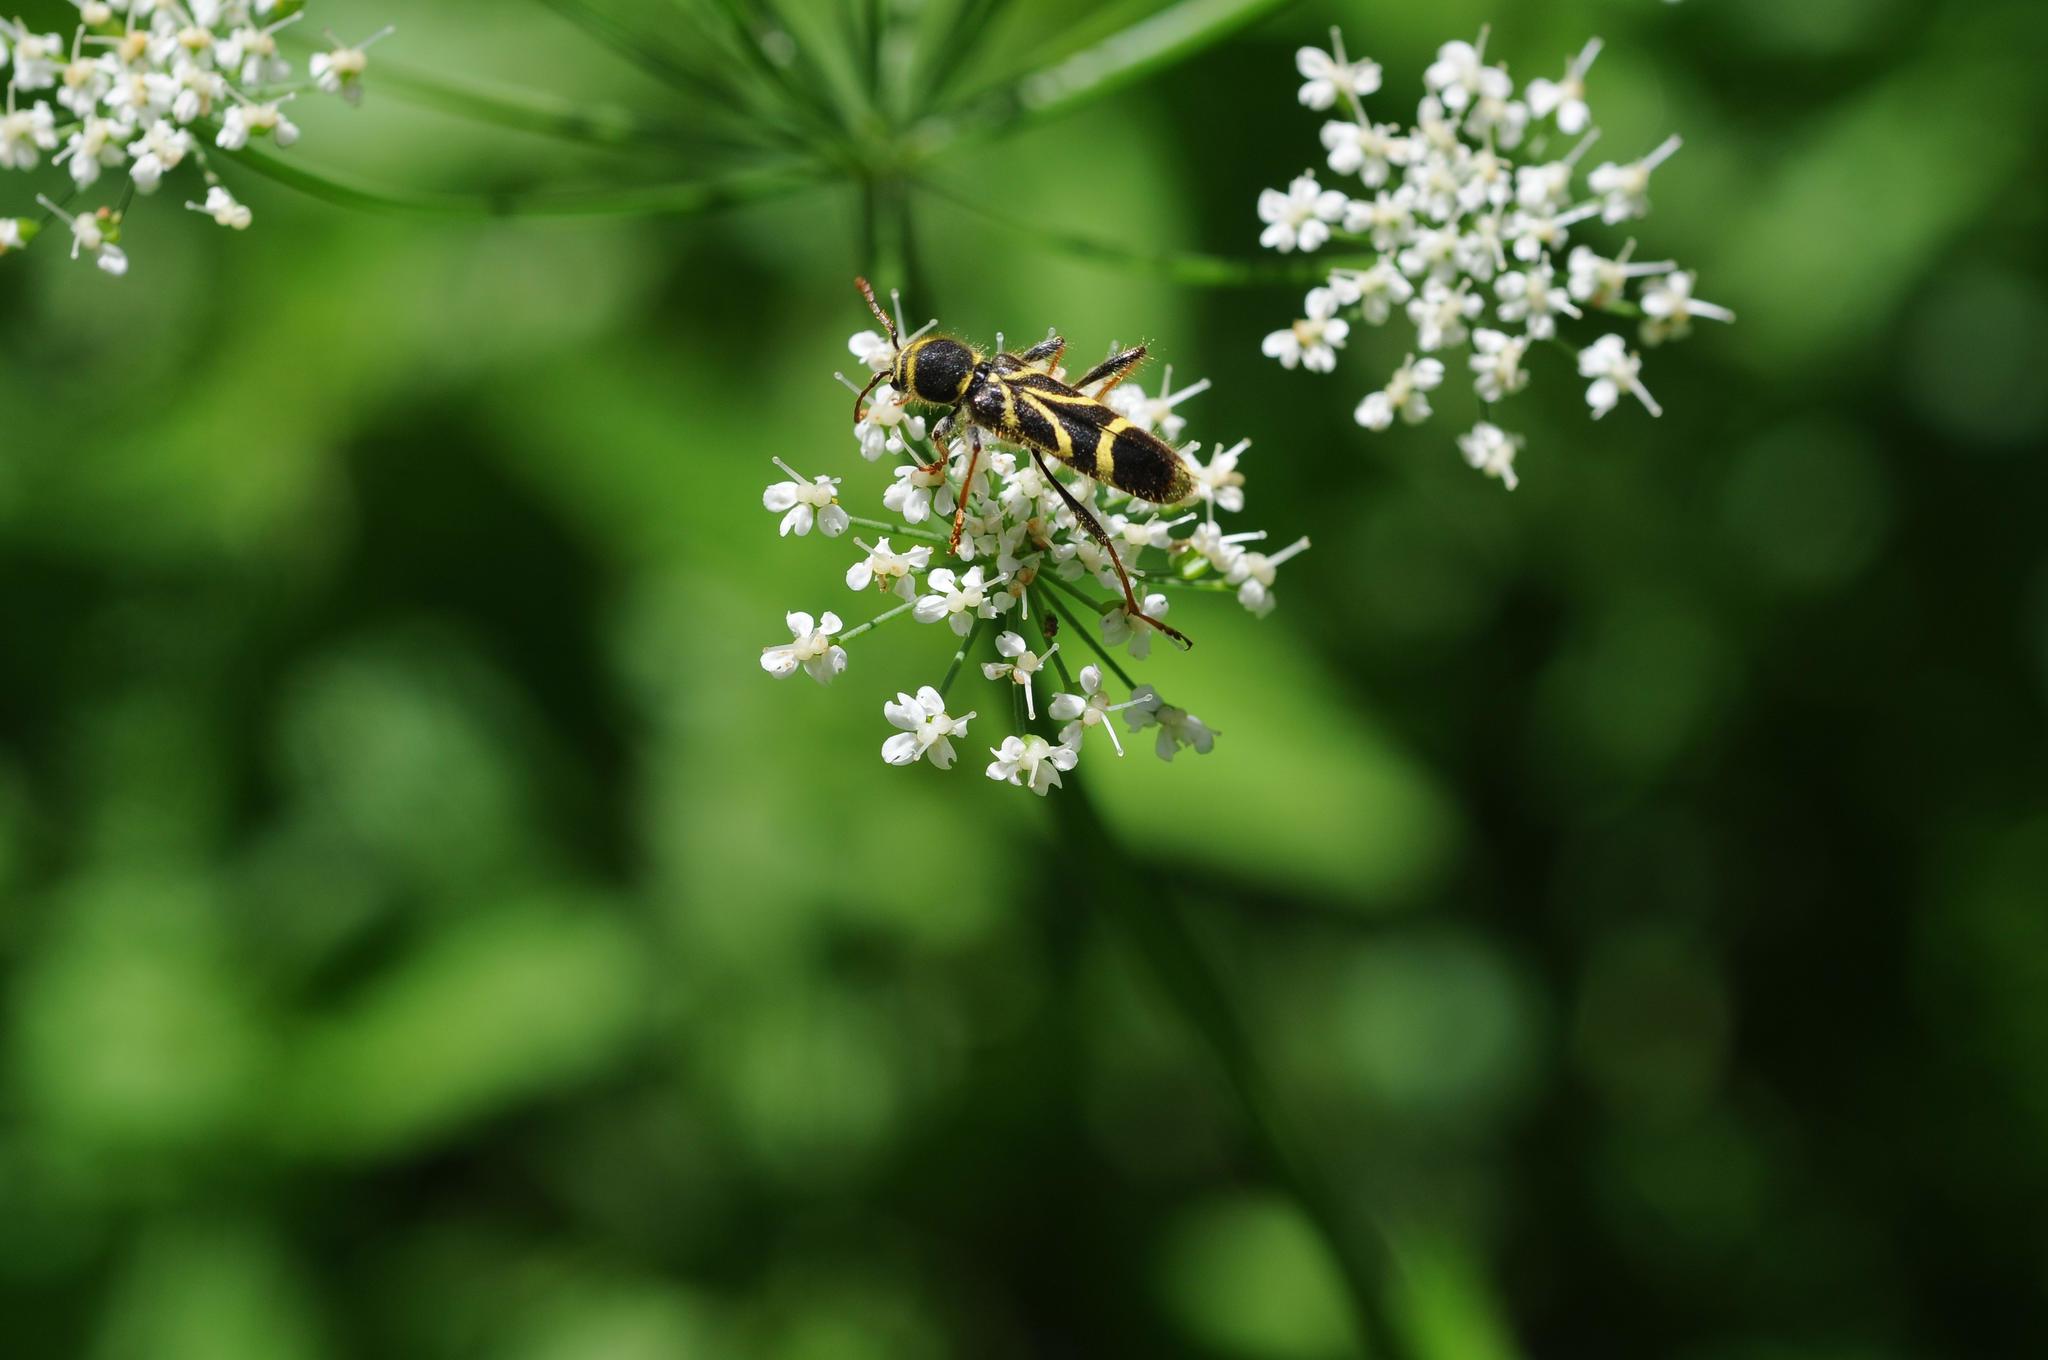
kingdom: Animalia
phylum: Arthropoda
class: Insecta
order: Coleoptera
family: Cerambycidae
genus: Cyrtoclytus
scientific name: Cyrtoclytus capra
